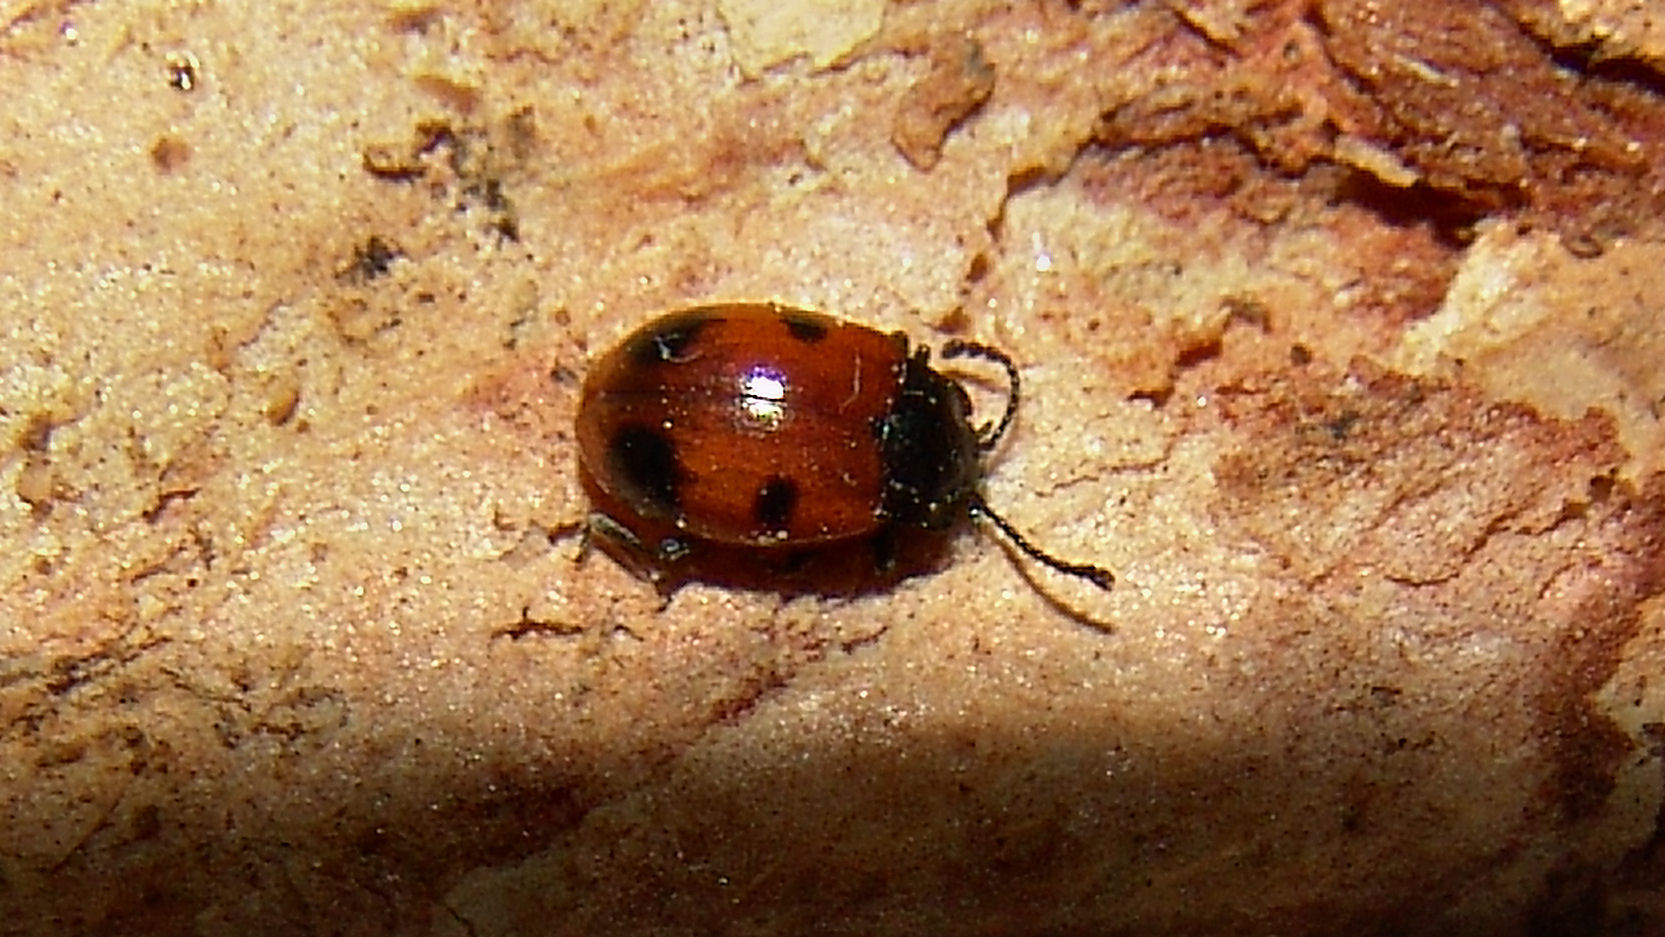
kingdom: Animalia
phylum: Arthropoda
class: Insecta
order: Coleoptera
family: Endomychidae
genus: Endomychus
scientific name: Endomychus biguttatus
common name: Handsome fungus beetle
